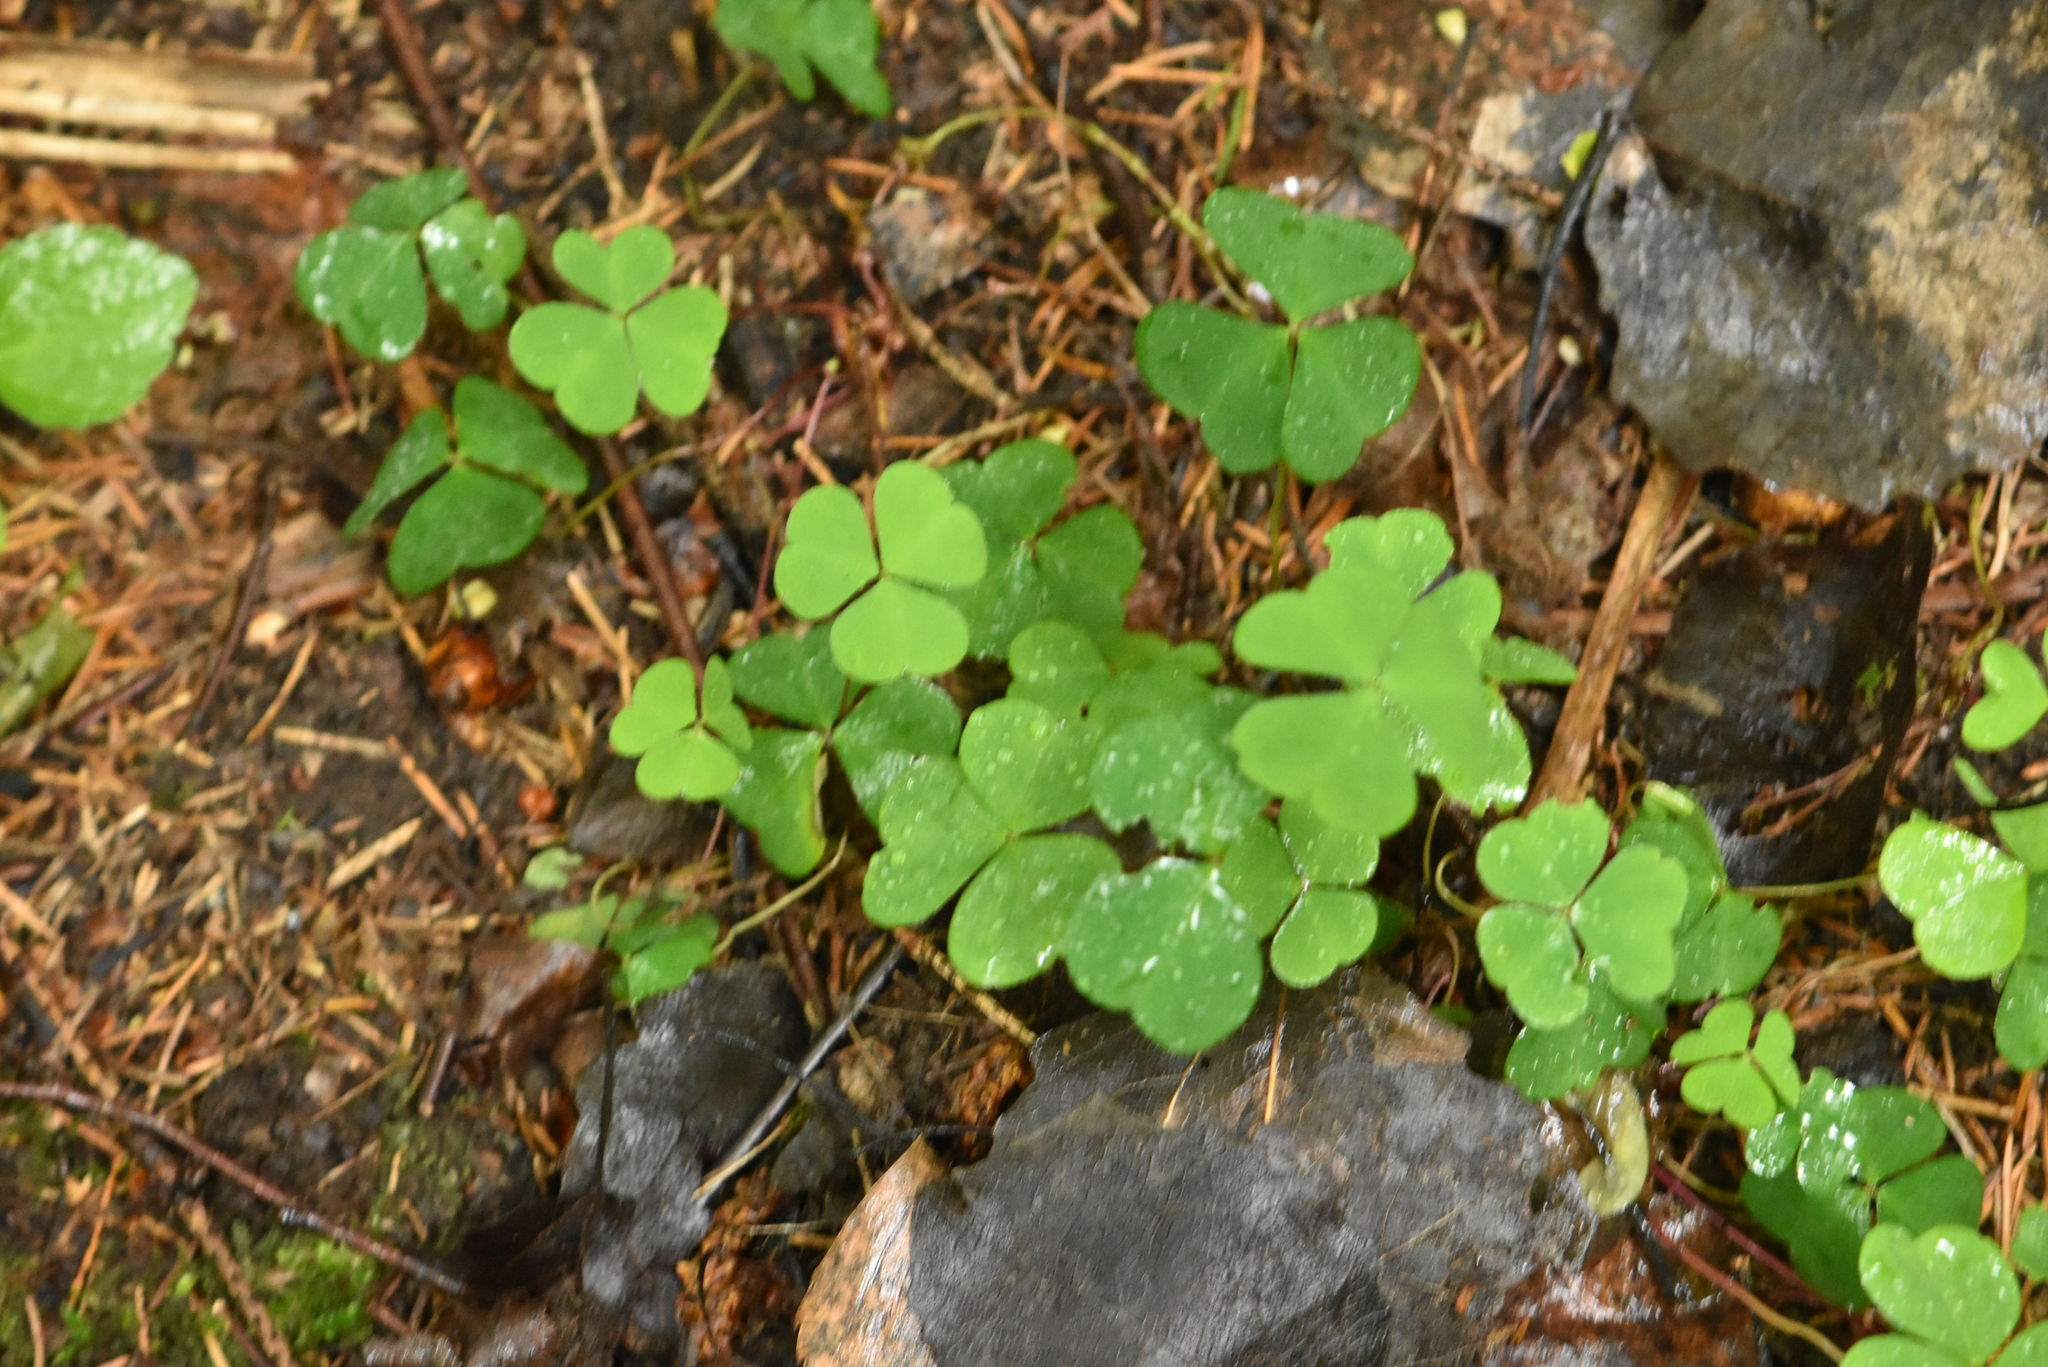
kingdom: Plantae
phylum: Tracheophyta
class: Magnoliopsida
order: Oxalidales
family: Oxalidaceae
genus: Oxalis
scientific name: Oxalis acetosella
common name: Wood-sorrel
